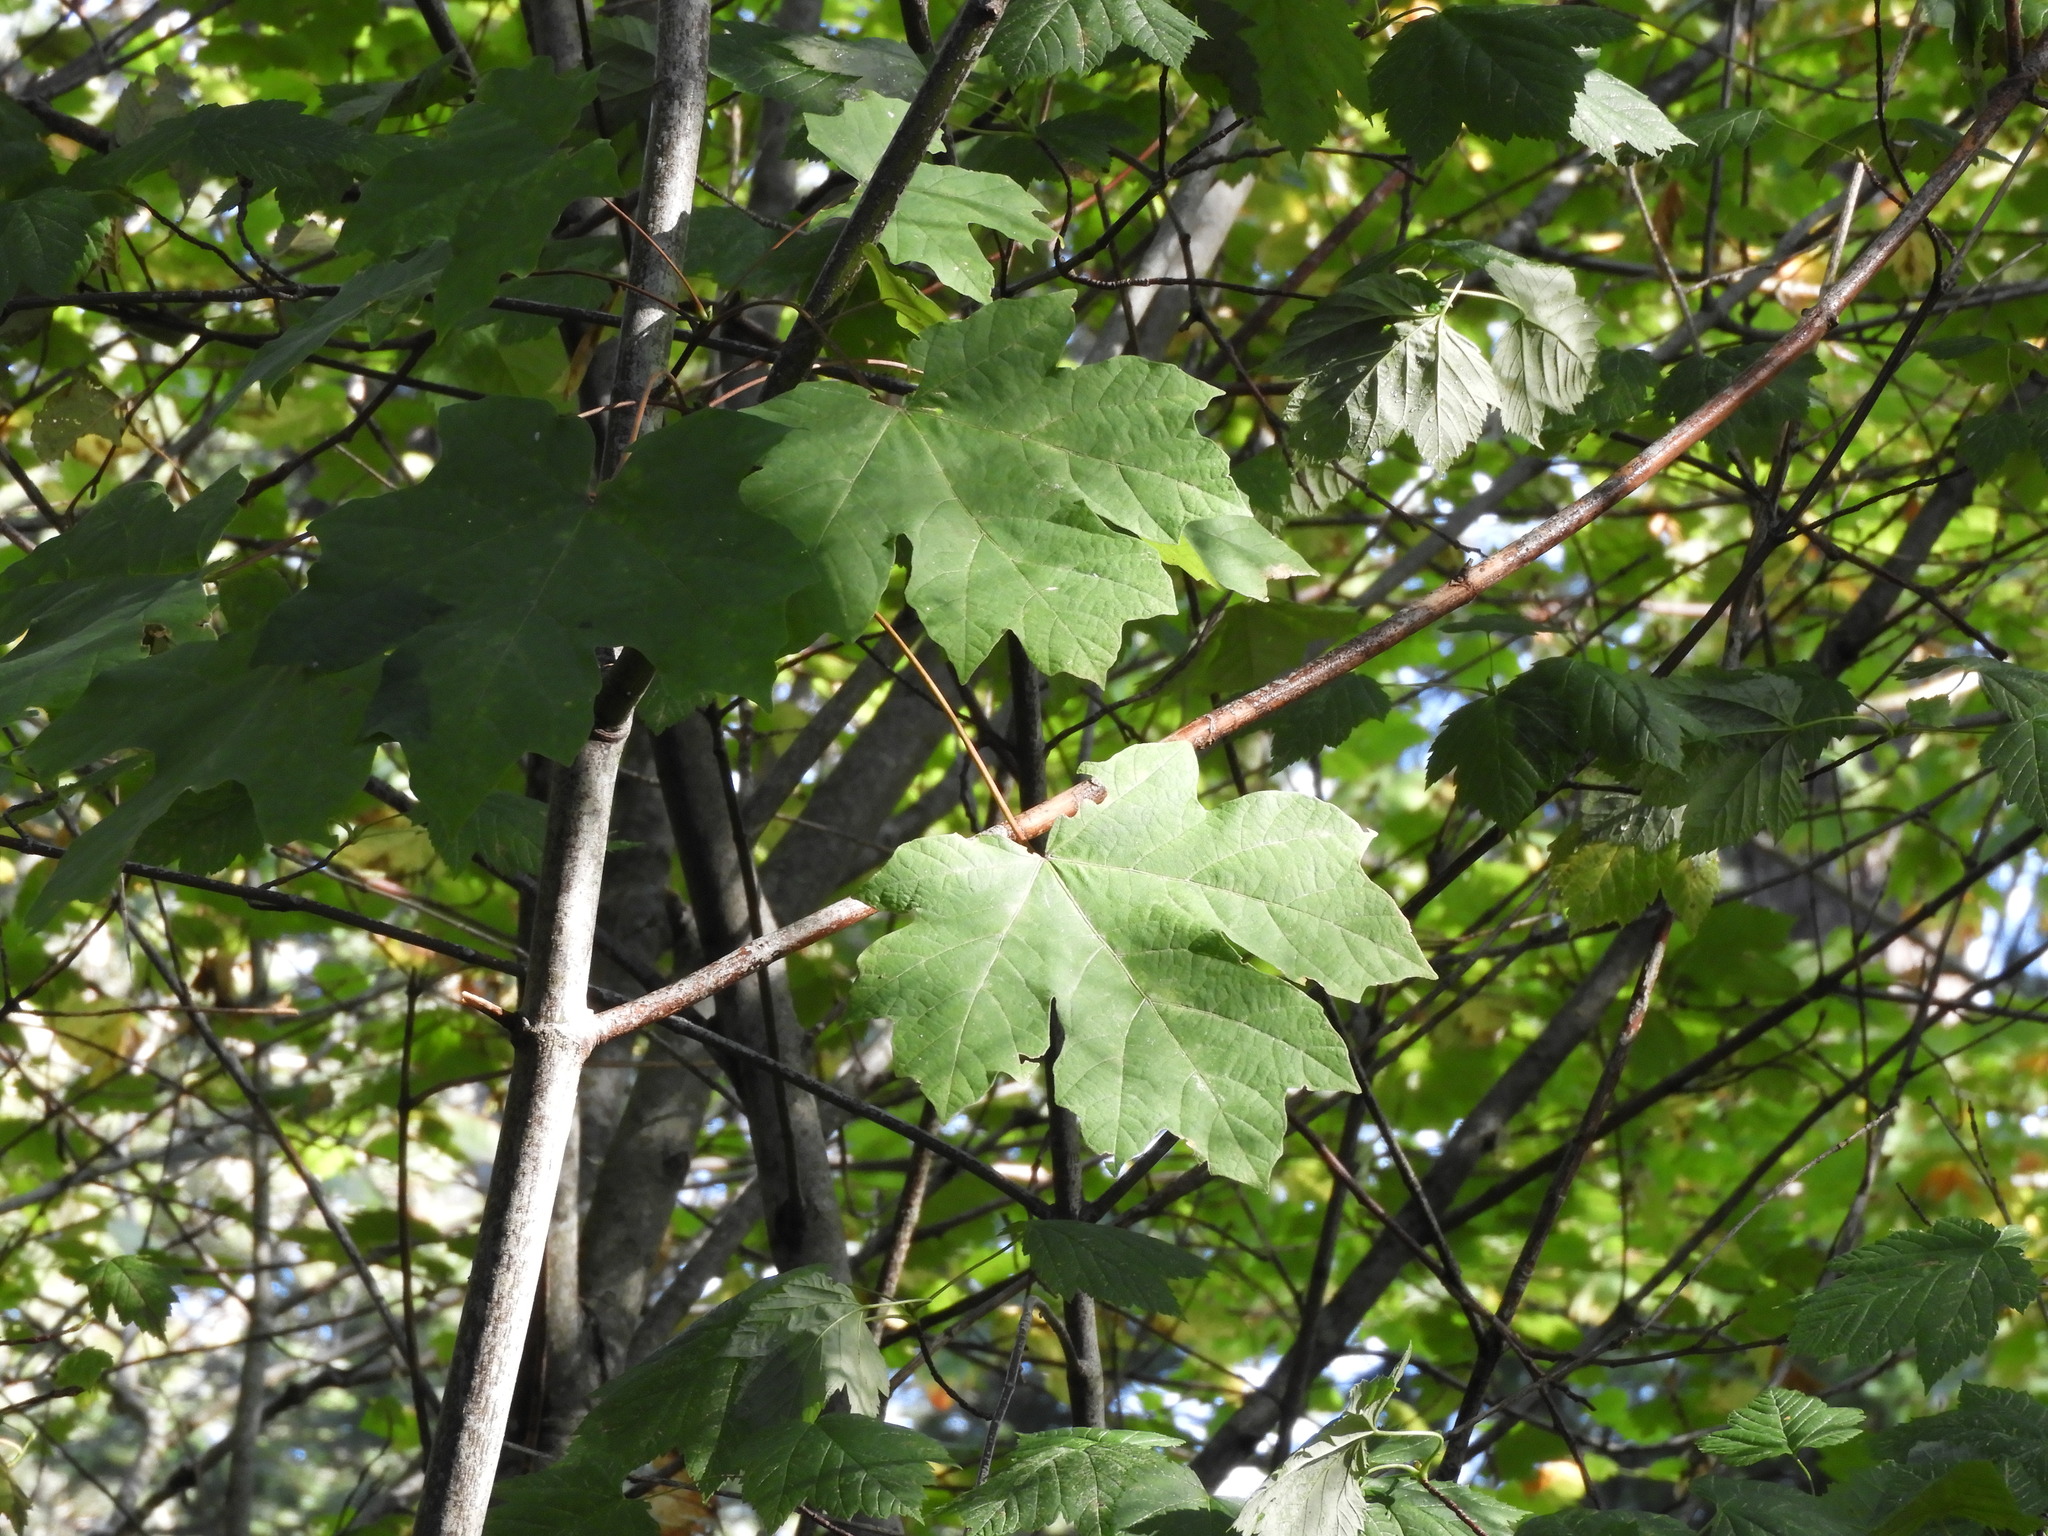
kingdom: Plantae
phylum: Tracheophyta
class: Magnoliopsida
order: Sapindales
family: Sapindaceae
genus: Acer
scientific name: Acer macrophyllum
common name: Oregon maple
